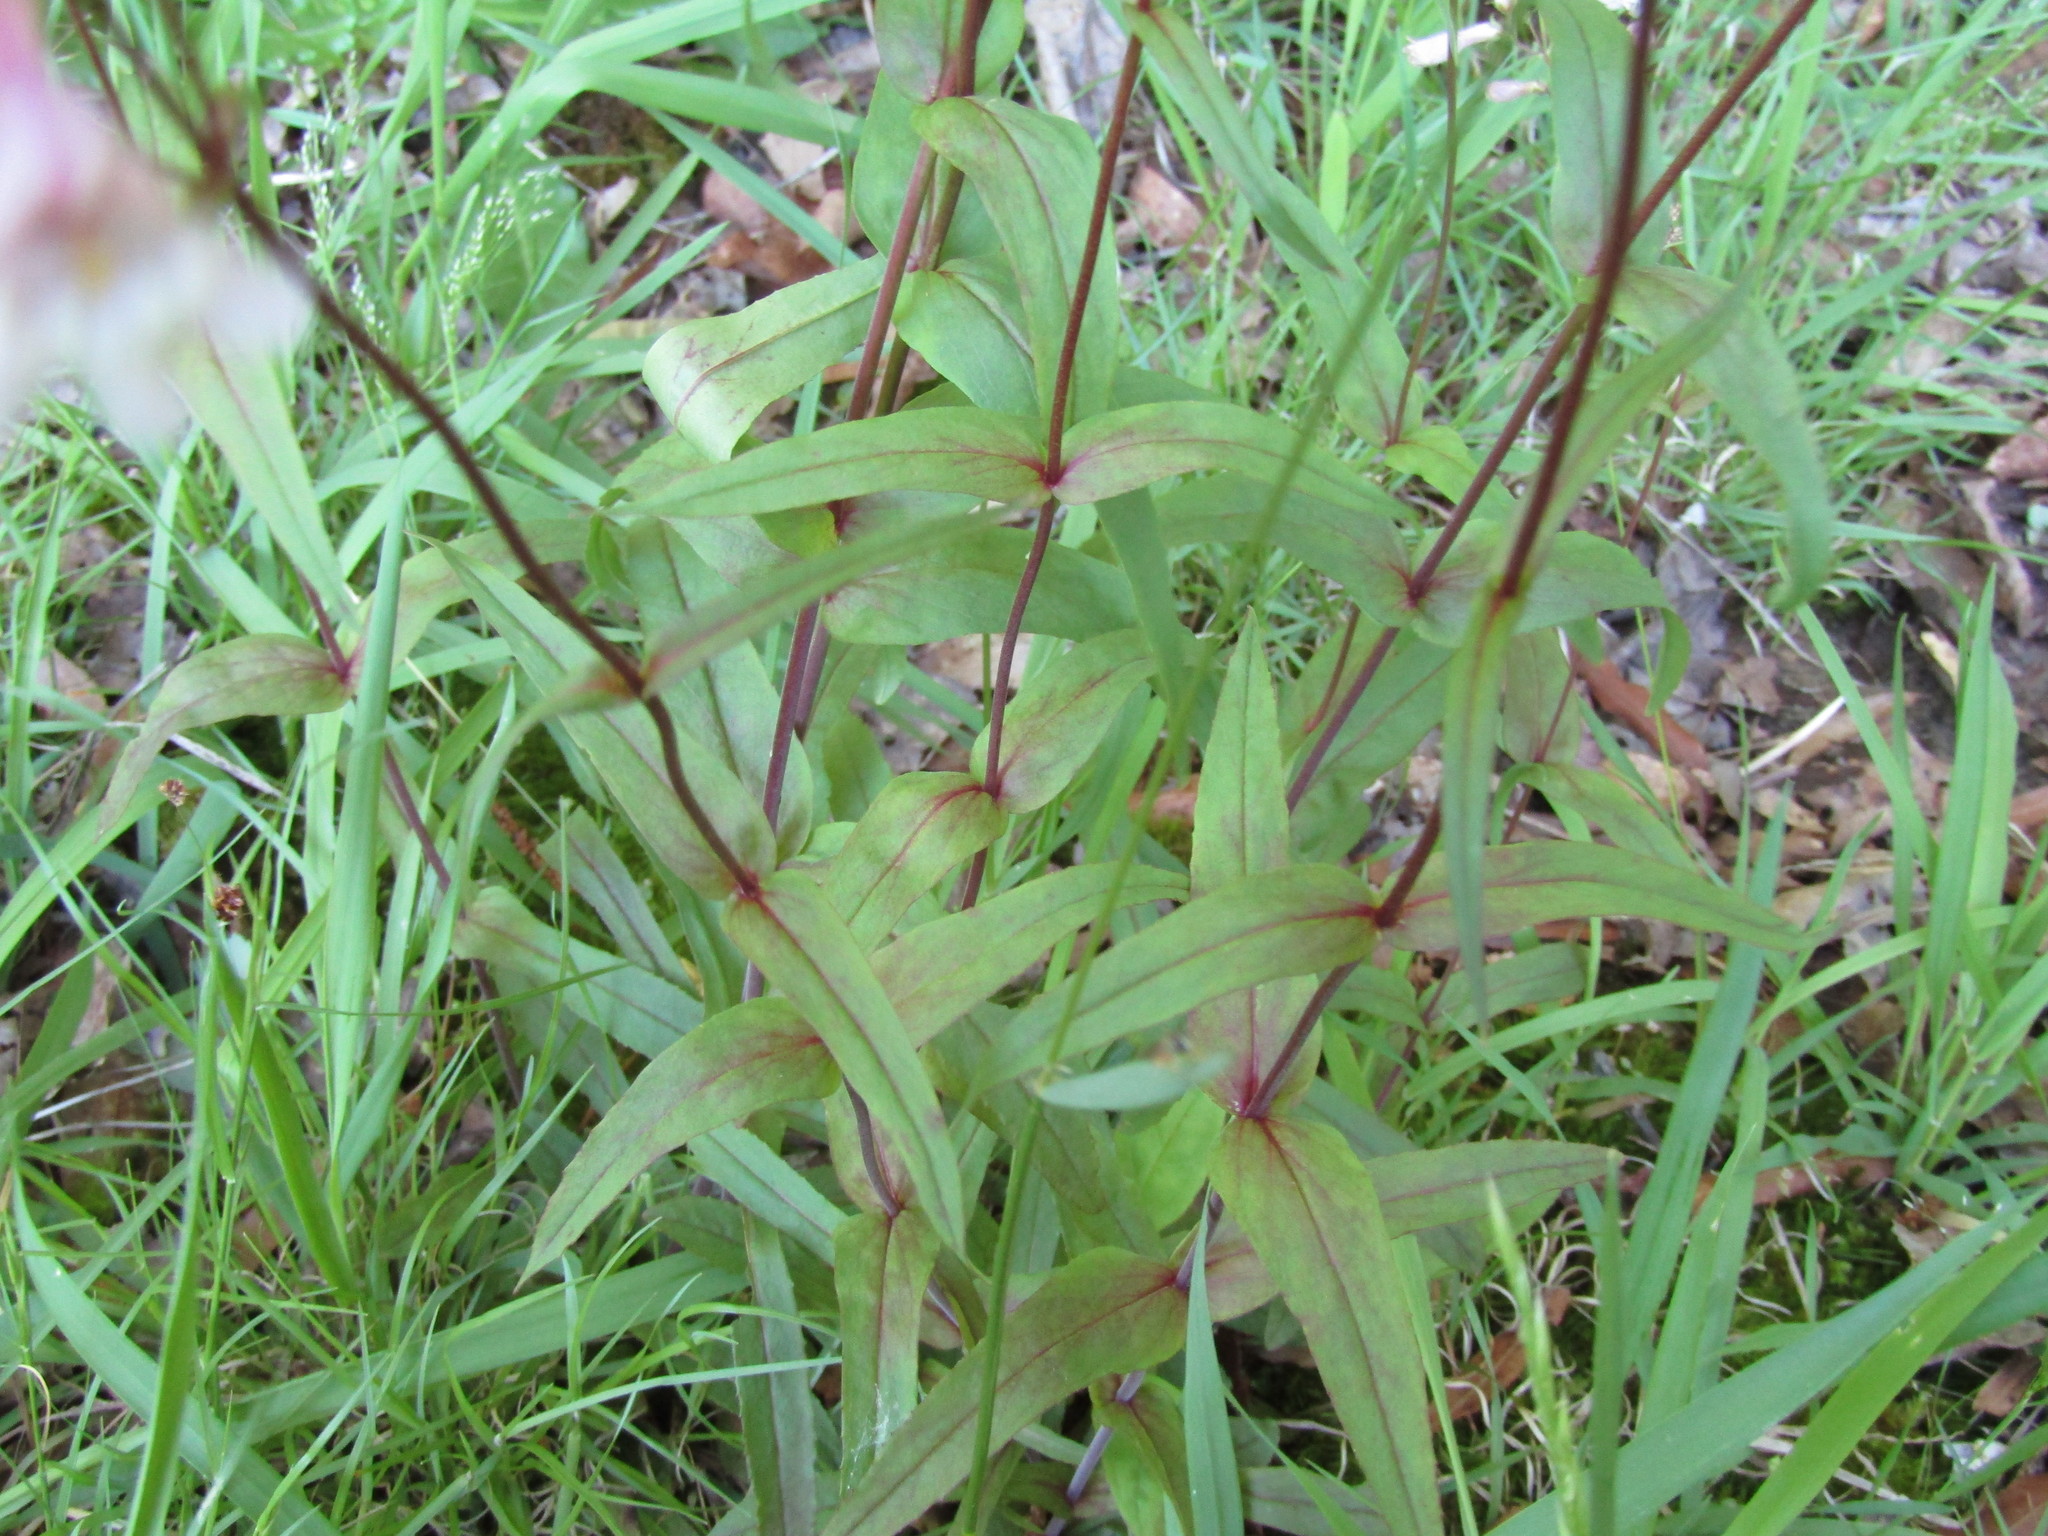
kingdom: Plantae
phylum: Tracheophyta
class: Magnoliopsida
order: Lamiales
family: Plantaginaceae
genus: Penstemon
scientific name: Penstemon laevigatus
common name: Eastern beardtongue
